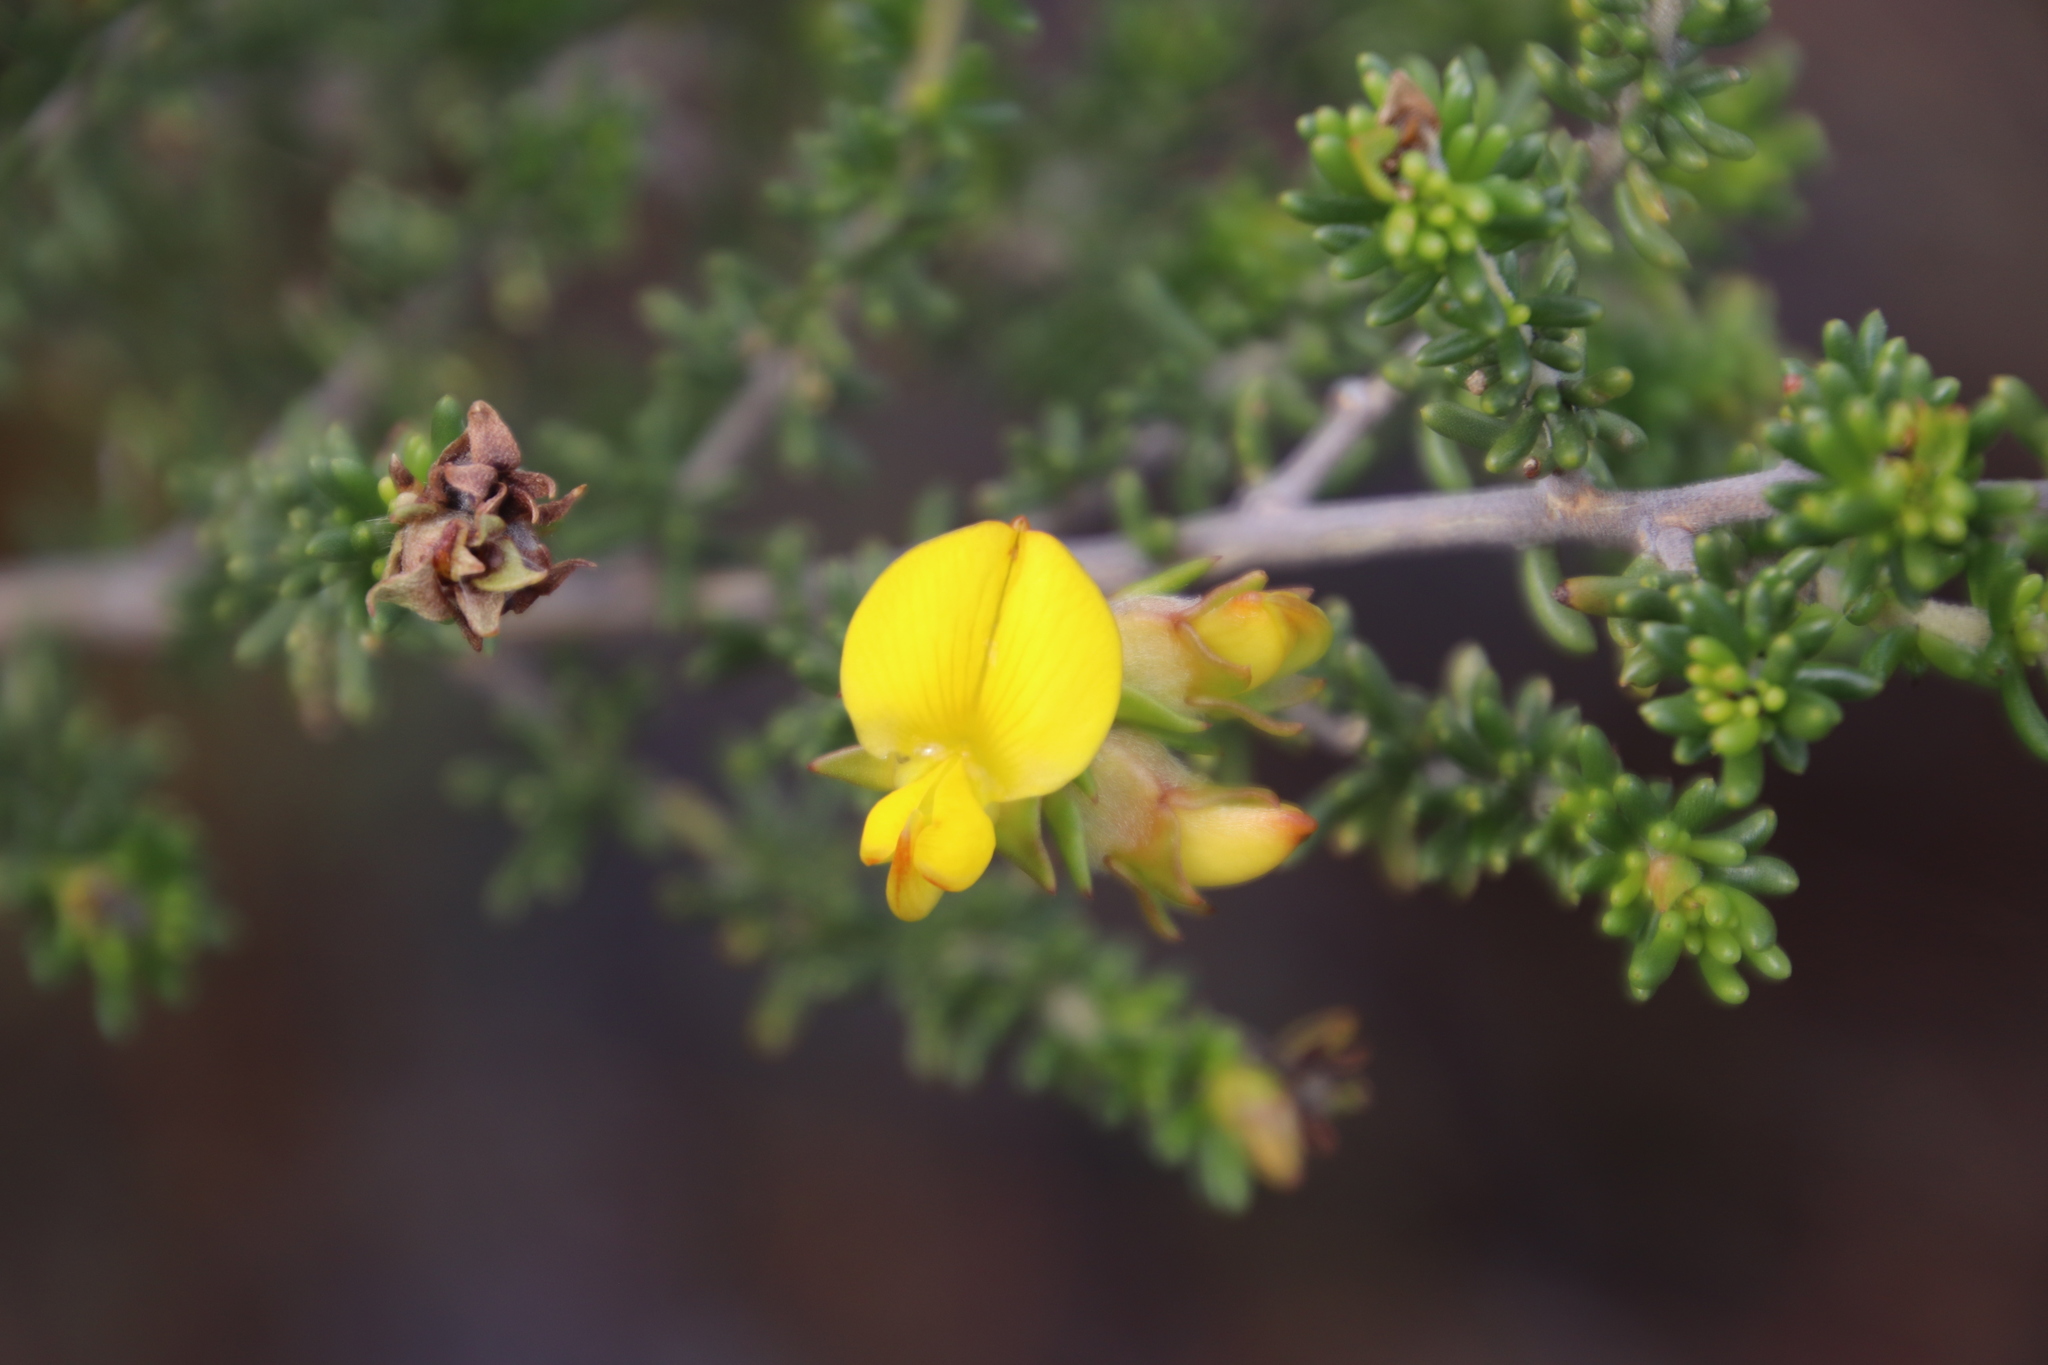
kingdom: Plantae
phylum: Tracheophyta
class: Magnoliopsida
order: Fabales
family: Fabaceae
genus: Aspalathus
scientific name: Aspalathus carnosa
